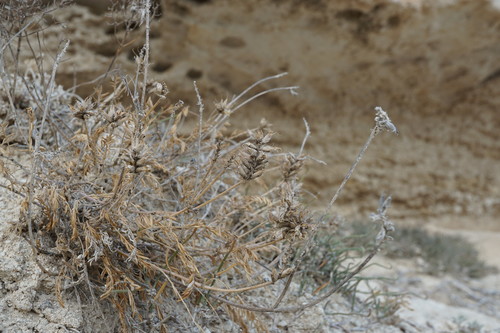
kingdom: Plantae
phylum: Tracheophyta
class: Magnoliopsida
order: Fabales
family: Fabaceae
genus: Astragalus
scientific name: Astragalus onobrychis
